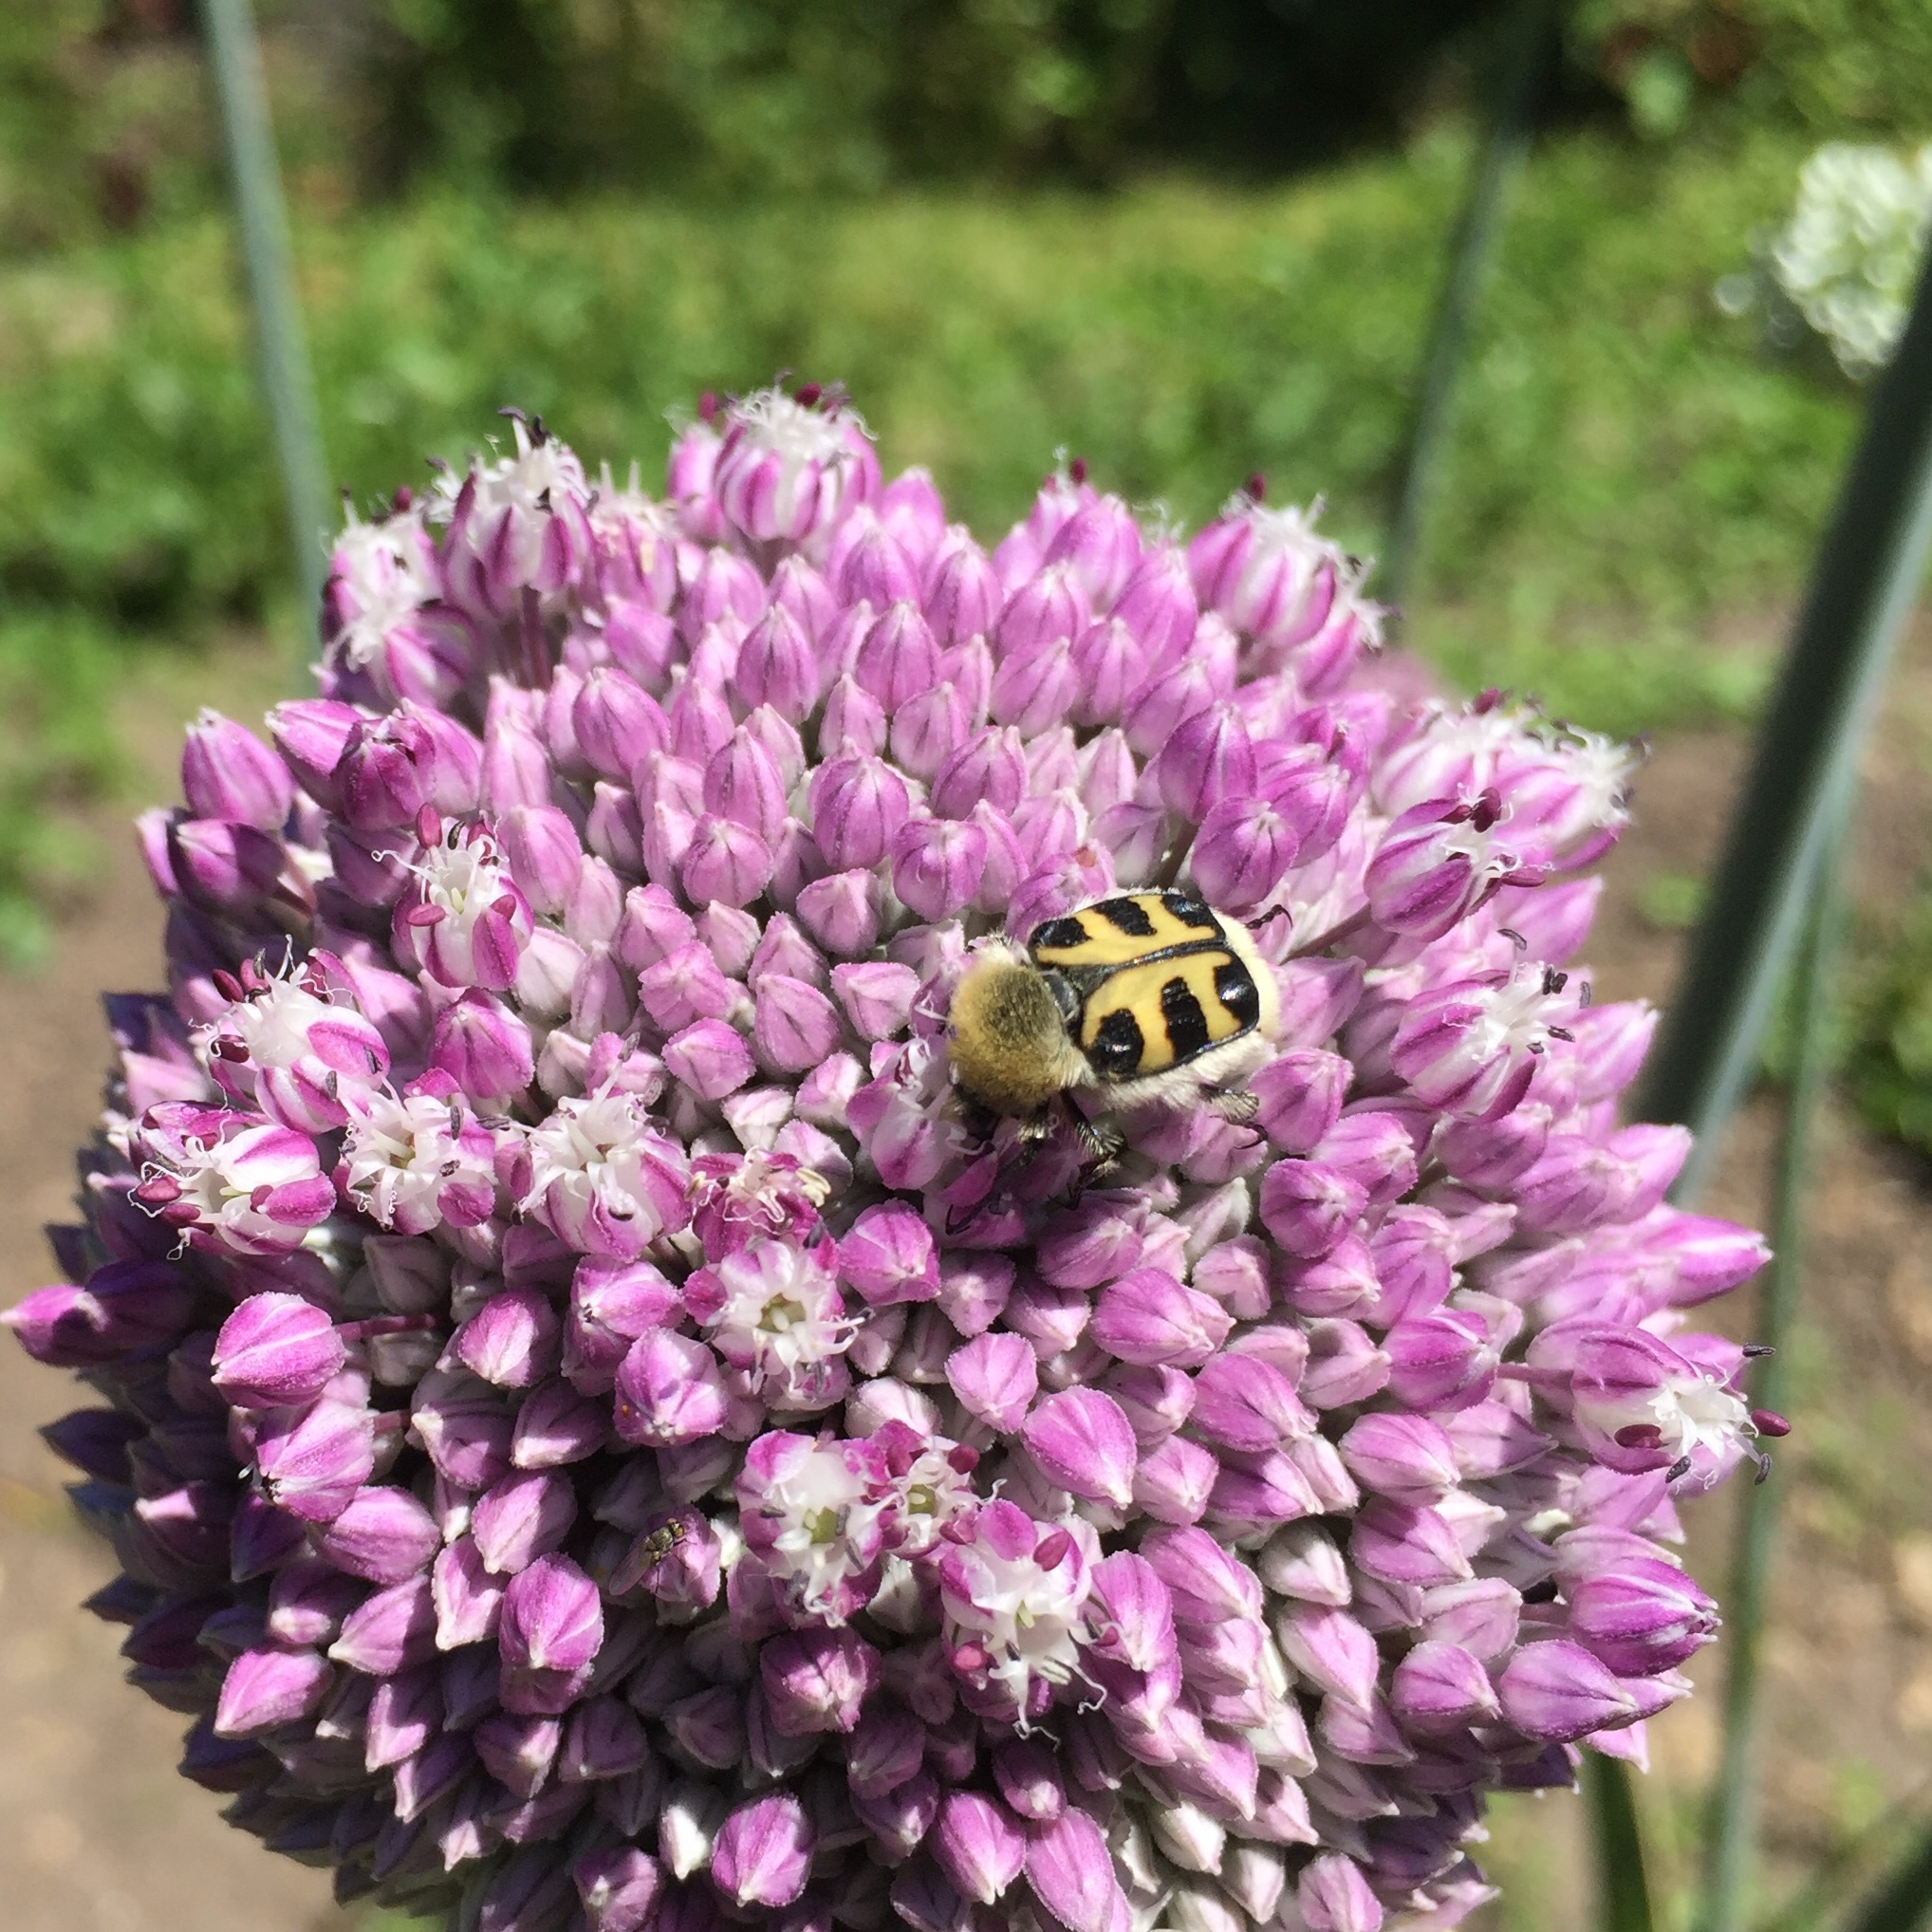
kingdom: Animalia
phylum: Arthropoda
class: Insecta
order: Coleoptera
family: Scarabaeidae
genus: Trichius
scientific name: Trichius gallicus
